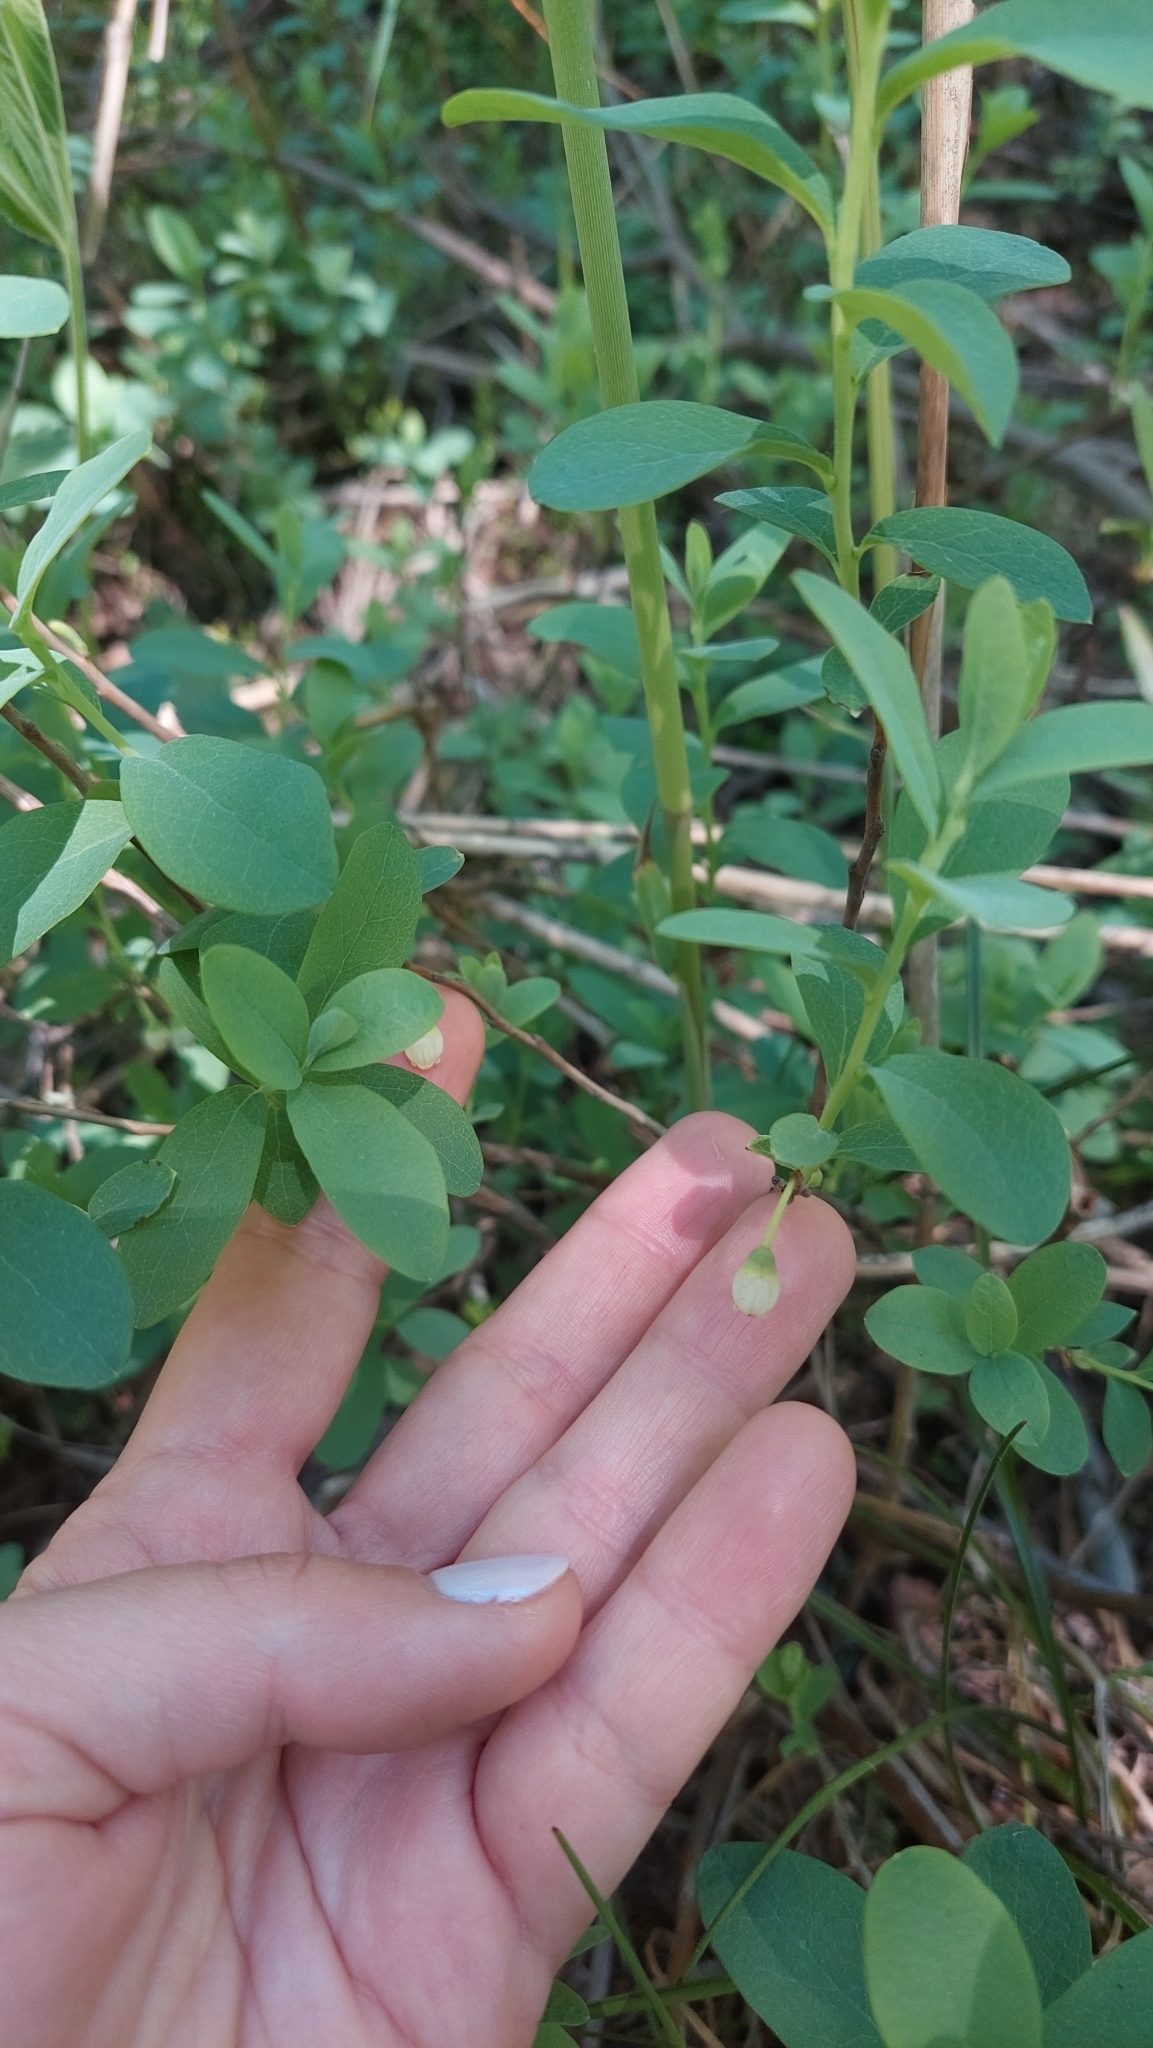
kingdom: Plantae
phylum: Tracheophyta
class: Magnoliopsida
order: Ericales
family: Ericaceae
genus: Vaccinium
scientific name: Vaccinium uliginosum
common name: Bog bilberry
